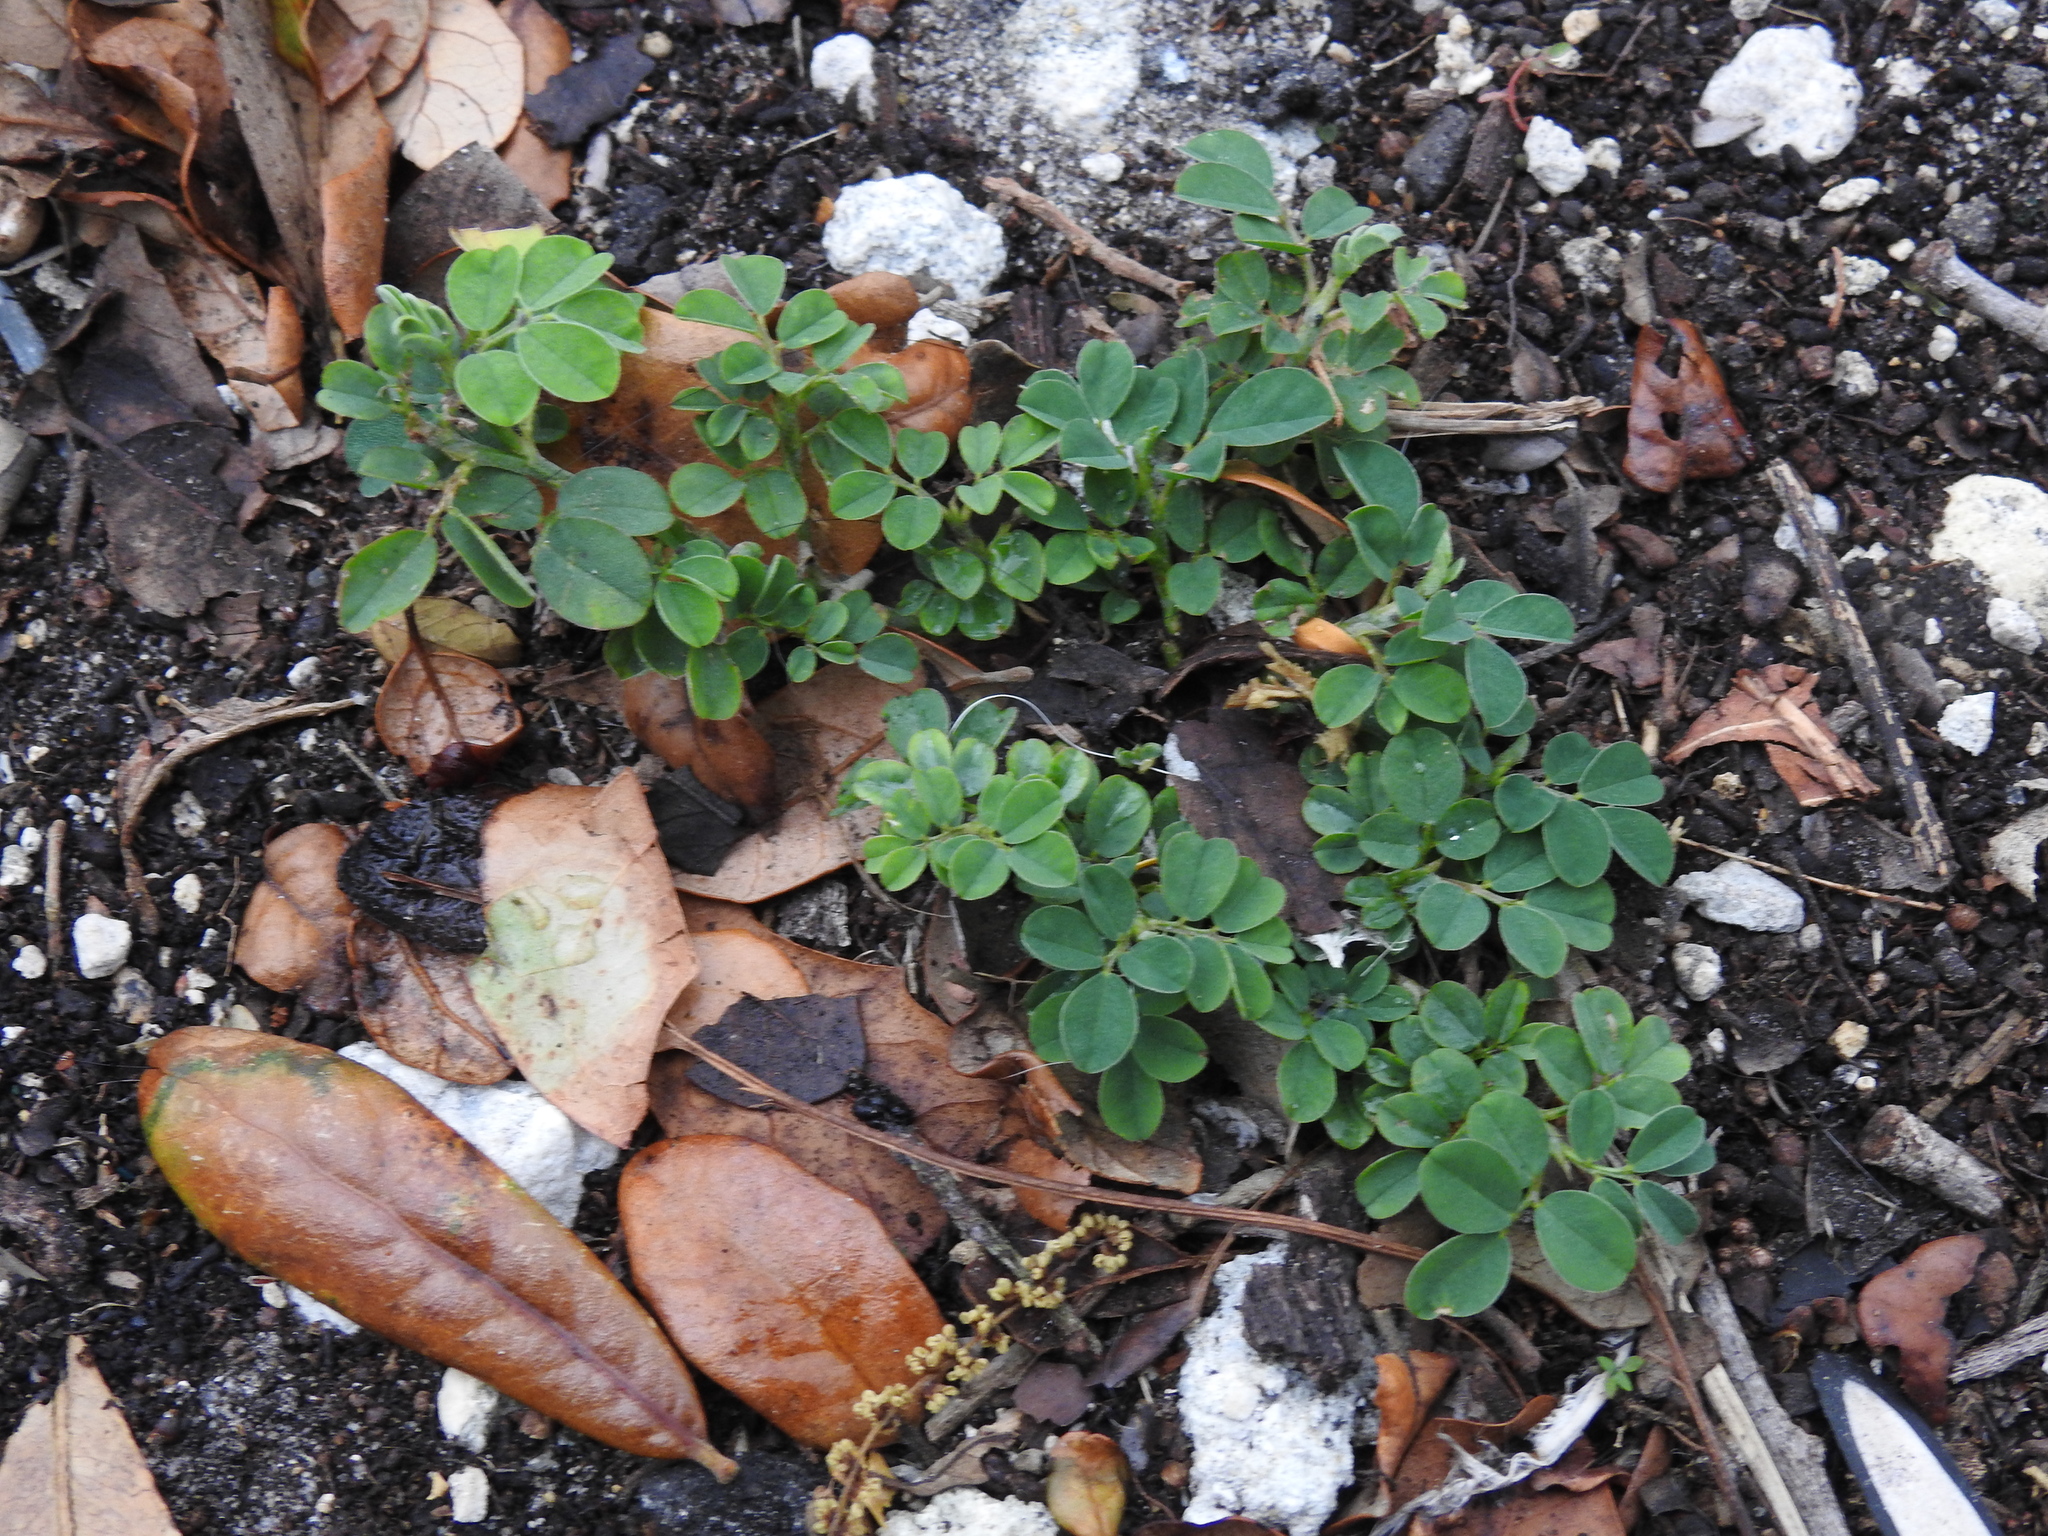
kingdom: Plantae
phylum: Tracheophyta
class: Magnoliopsida
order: Fabales
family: Fabaceae
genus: Indigofera
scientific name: Indigofera spicata
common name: Creeping indigo
